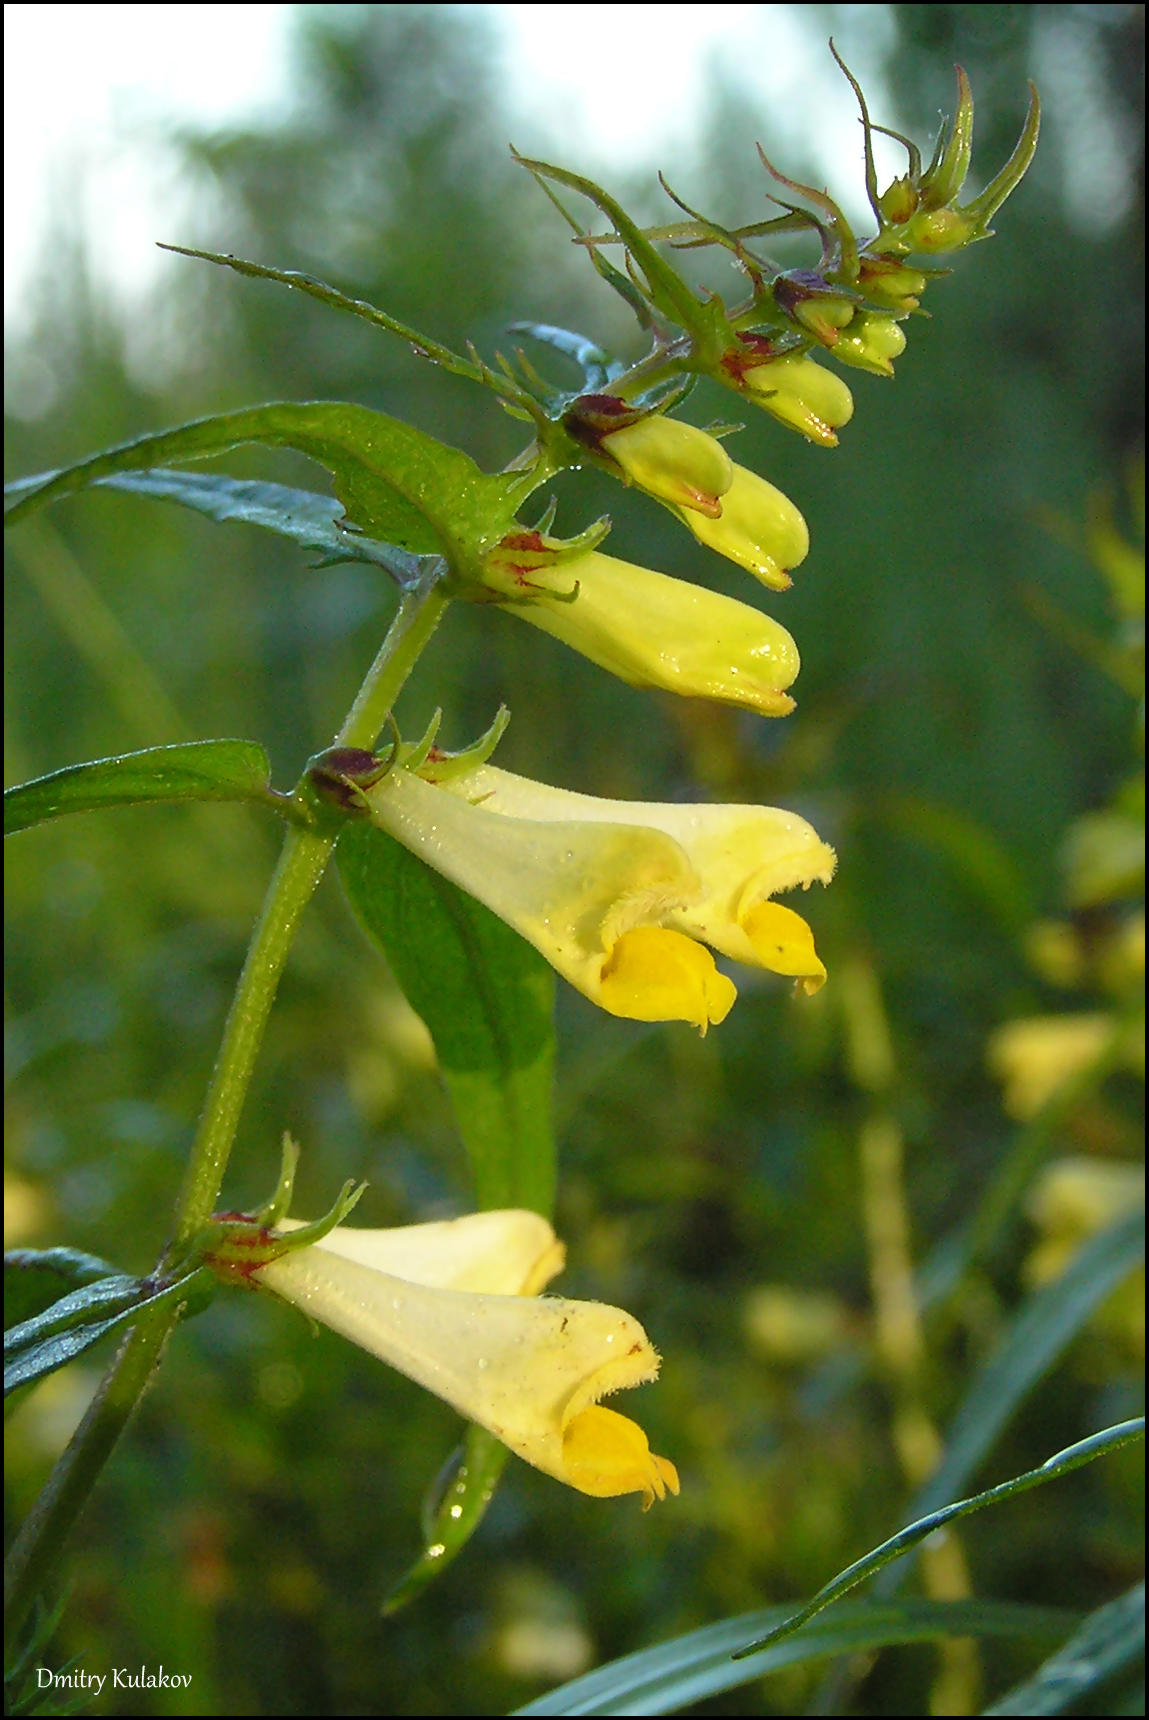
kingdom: Plantae
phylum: Tracheophyta
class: Magnoliopsida
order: Lamiales
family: Orobanchaceae
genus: Melampyrum
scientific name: Melampyrum pratense
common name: Common cow-wheat
